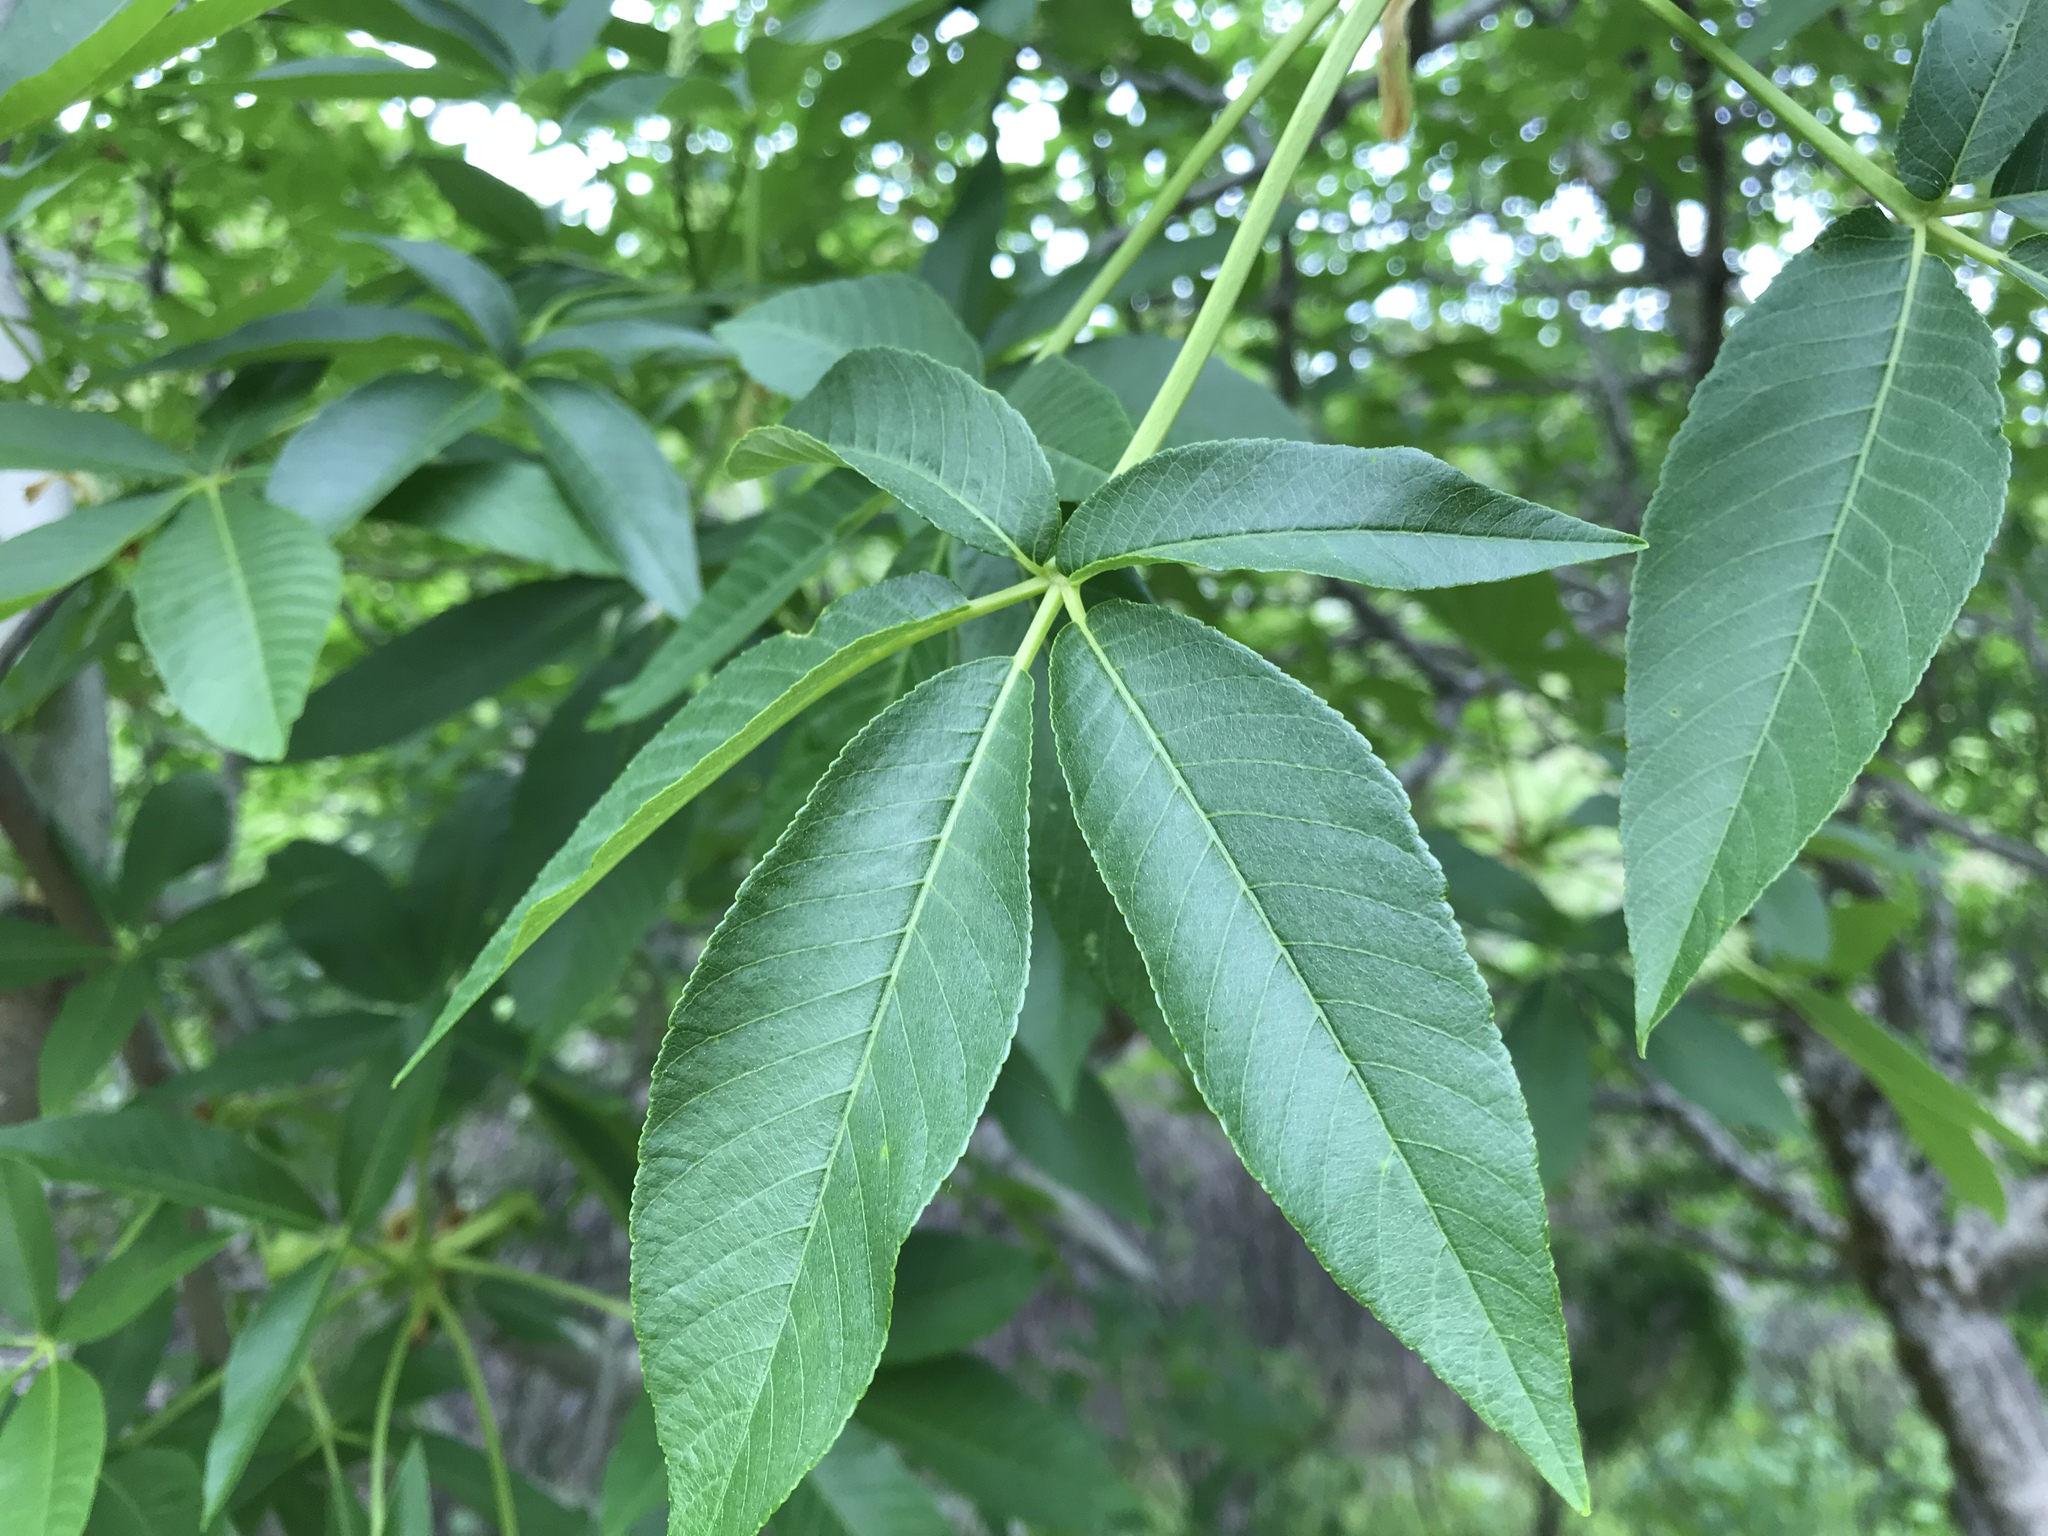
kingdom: Plantae
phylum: Tracheophyta
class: Magnoliopsida
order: Sapindales
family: Sapindaceae
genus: Aesculus
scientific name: Aesculus californica
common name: California buckeye
